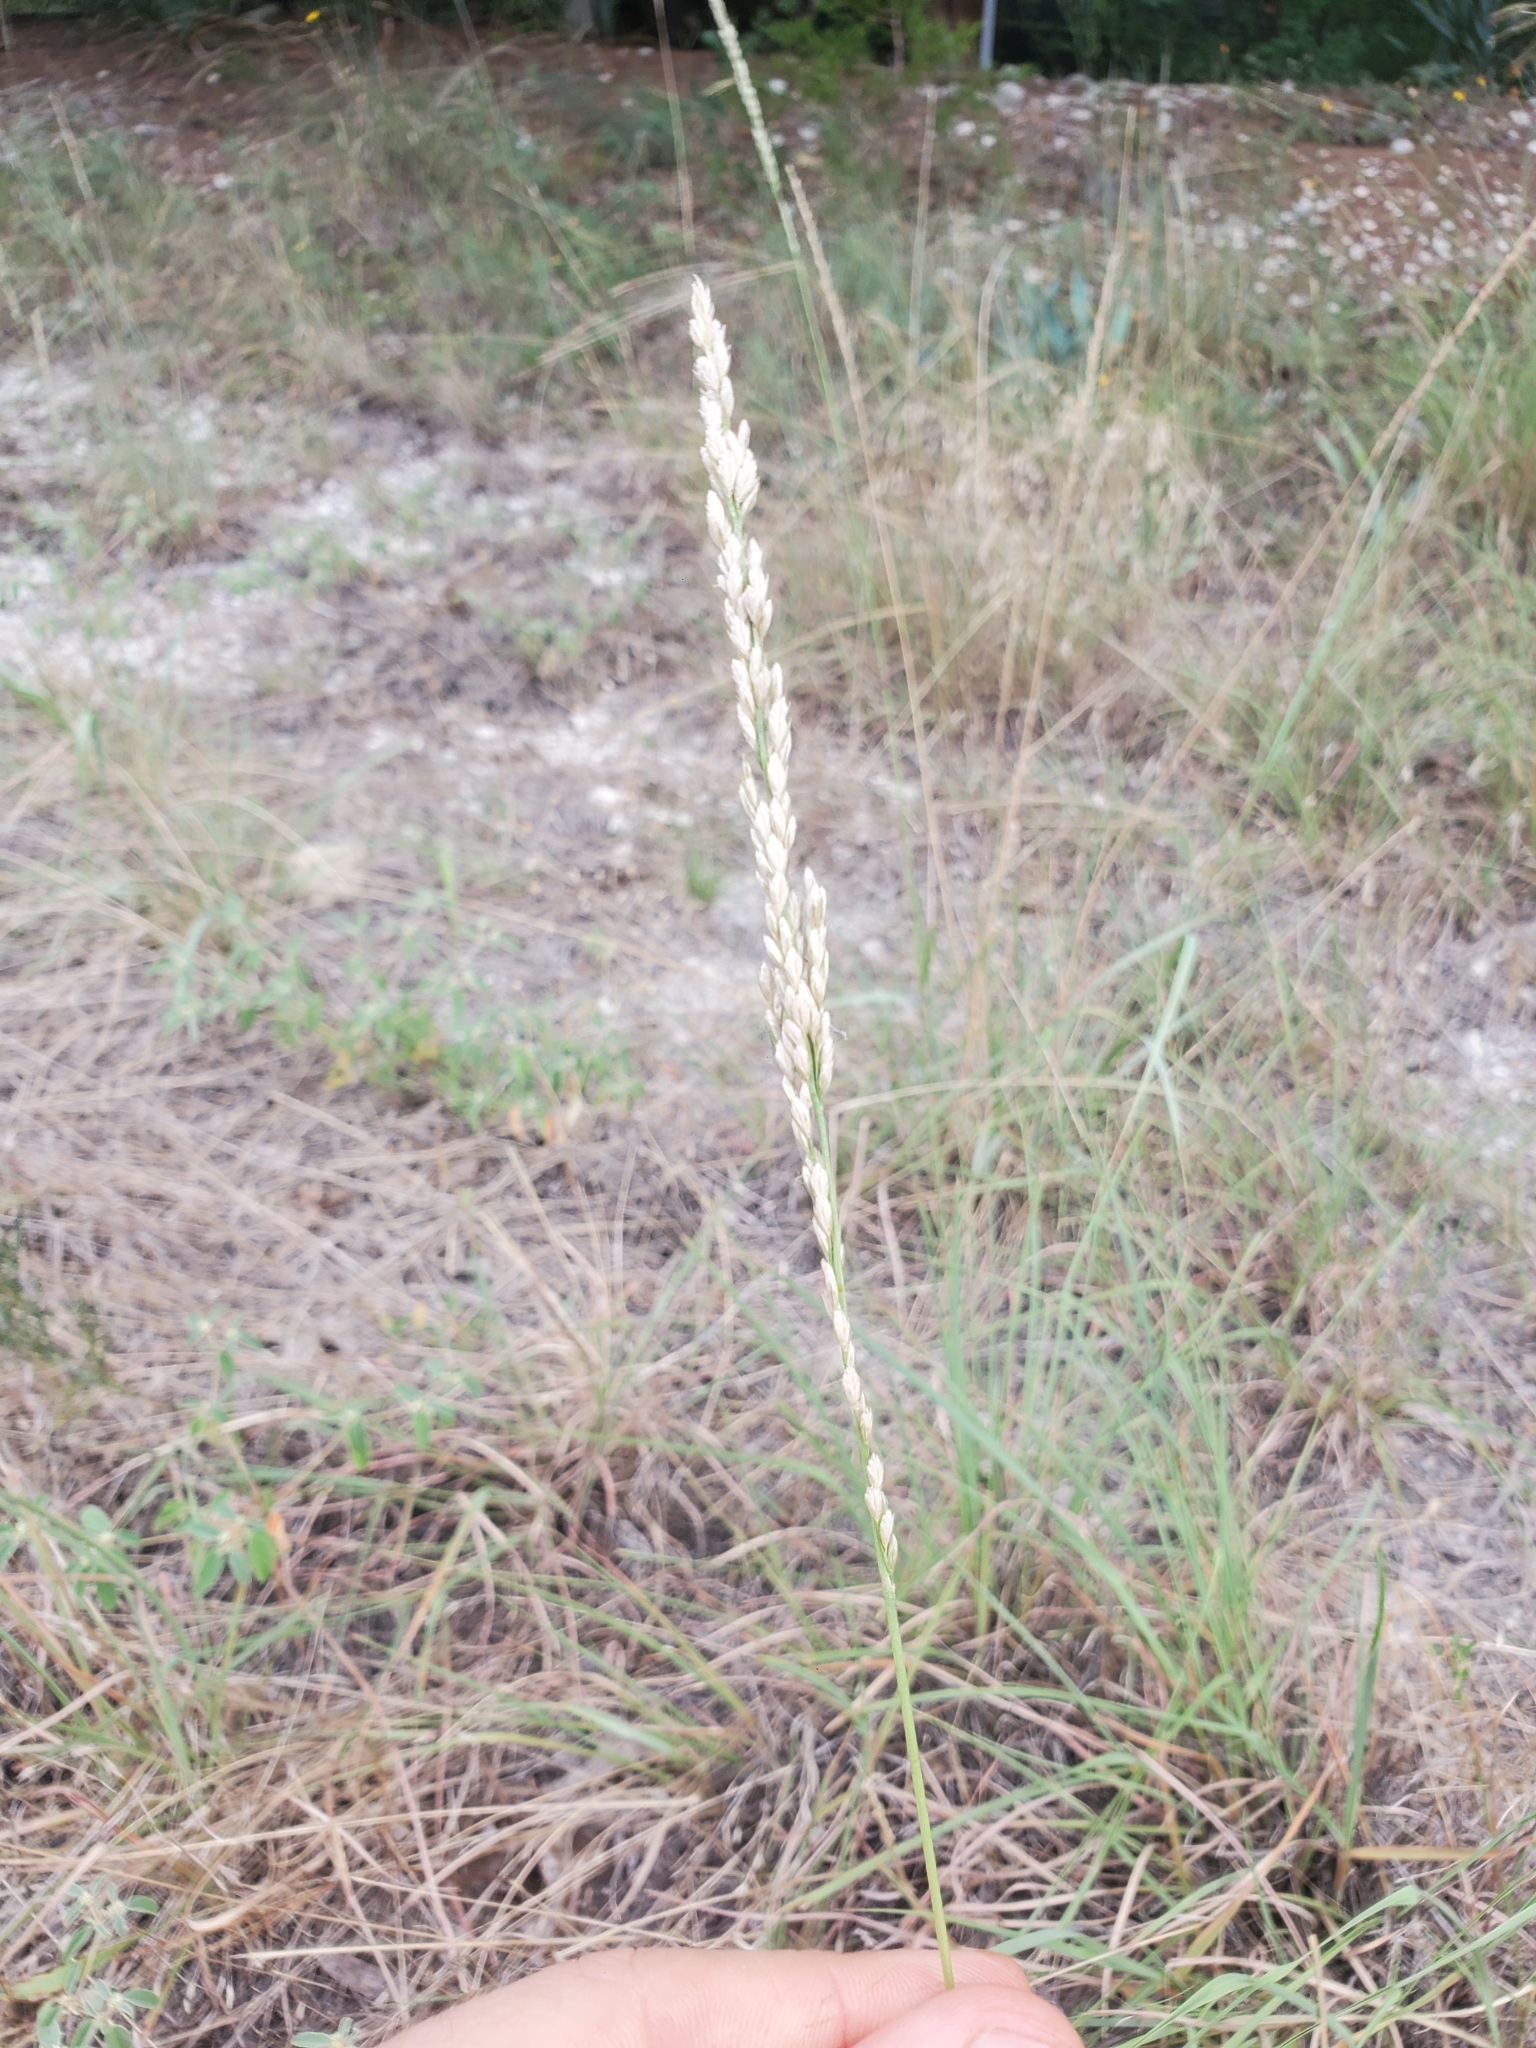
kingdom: Plantae
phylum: Tracheophyta
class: Liliopsida
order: Poales
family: Poaceae
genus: Tridens
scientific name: Tridens albescens
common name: White tridens
